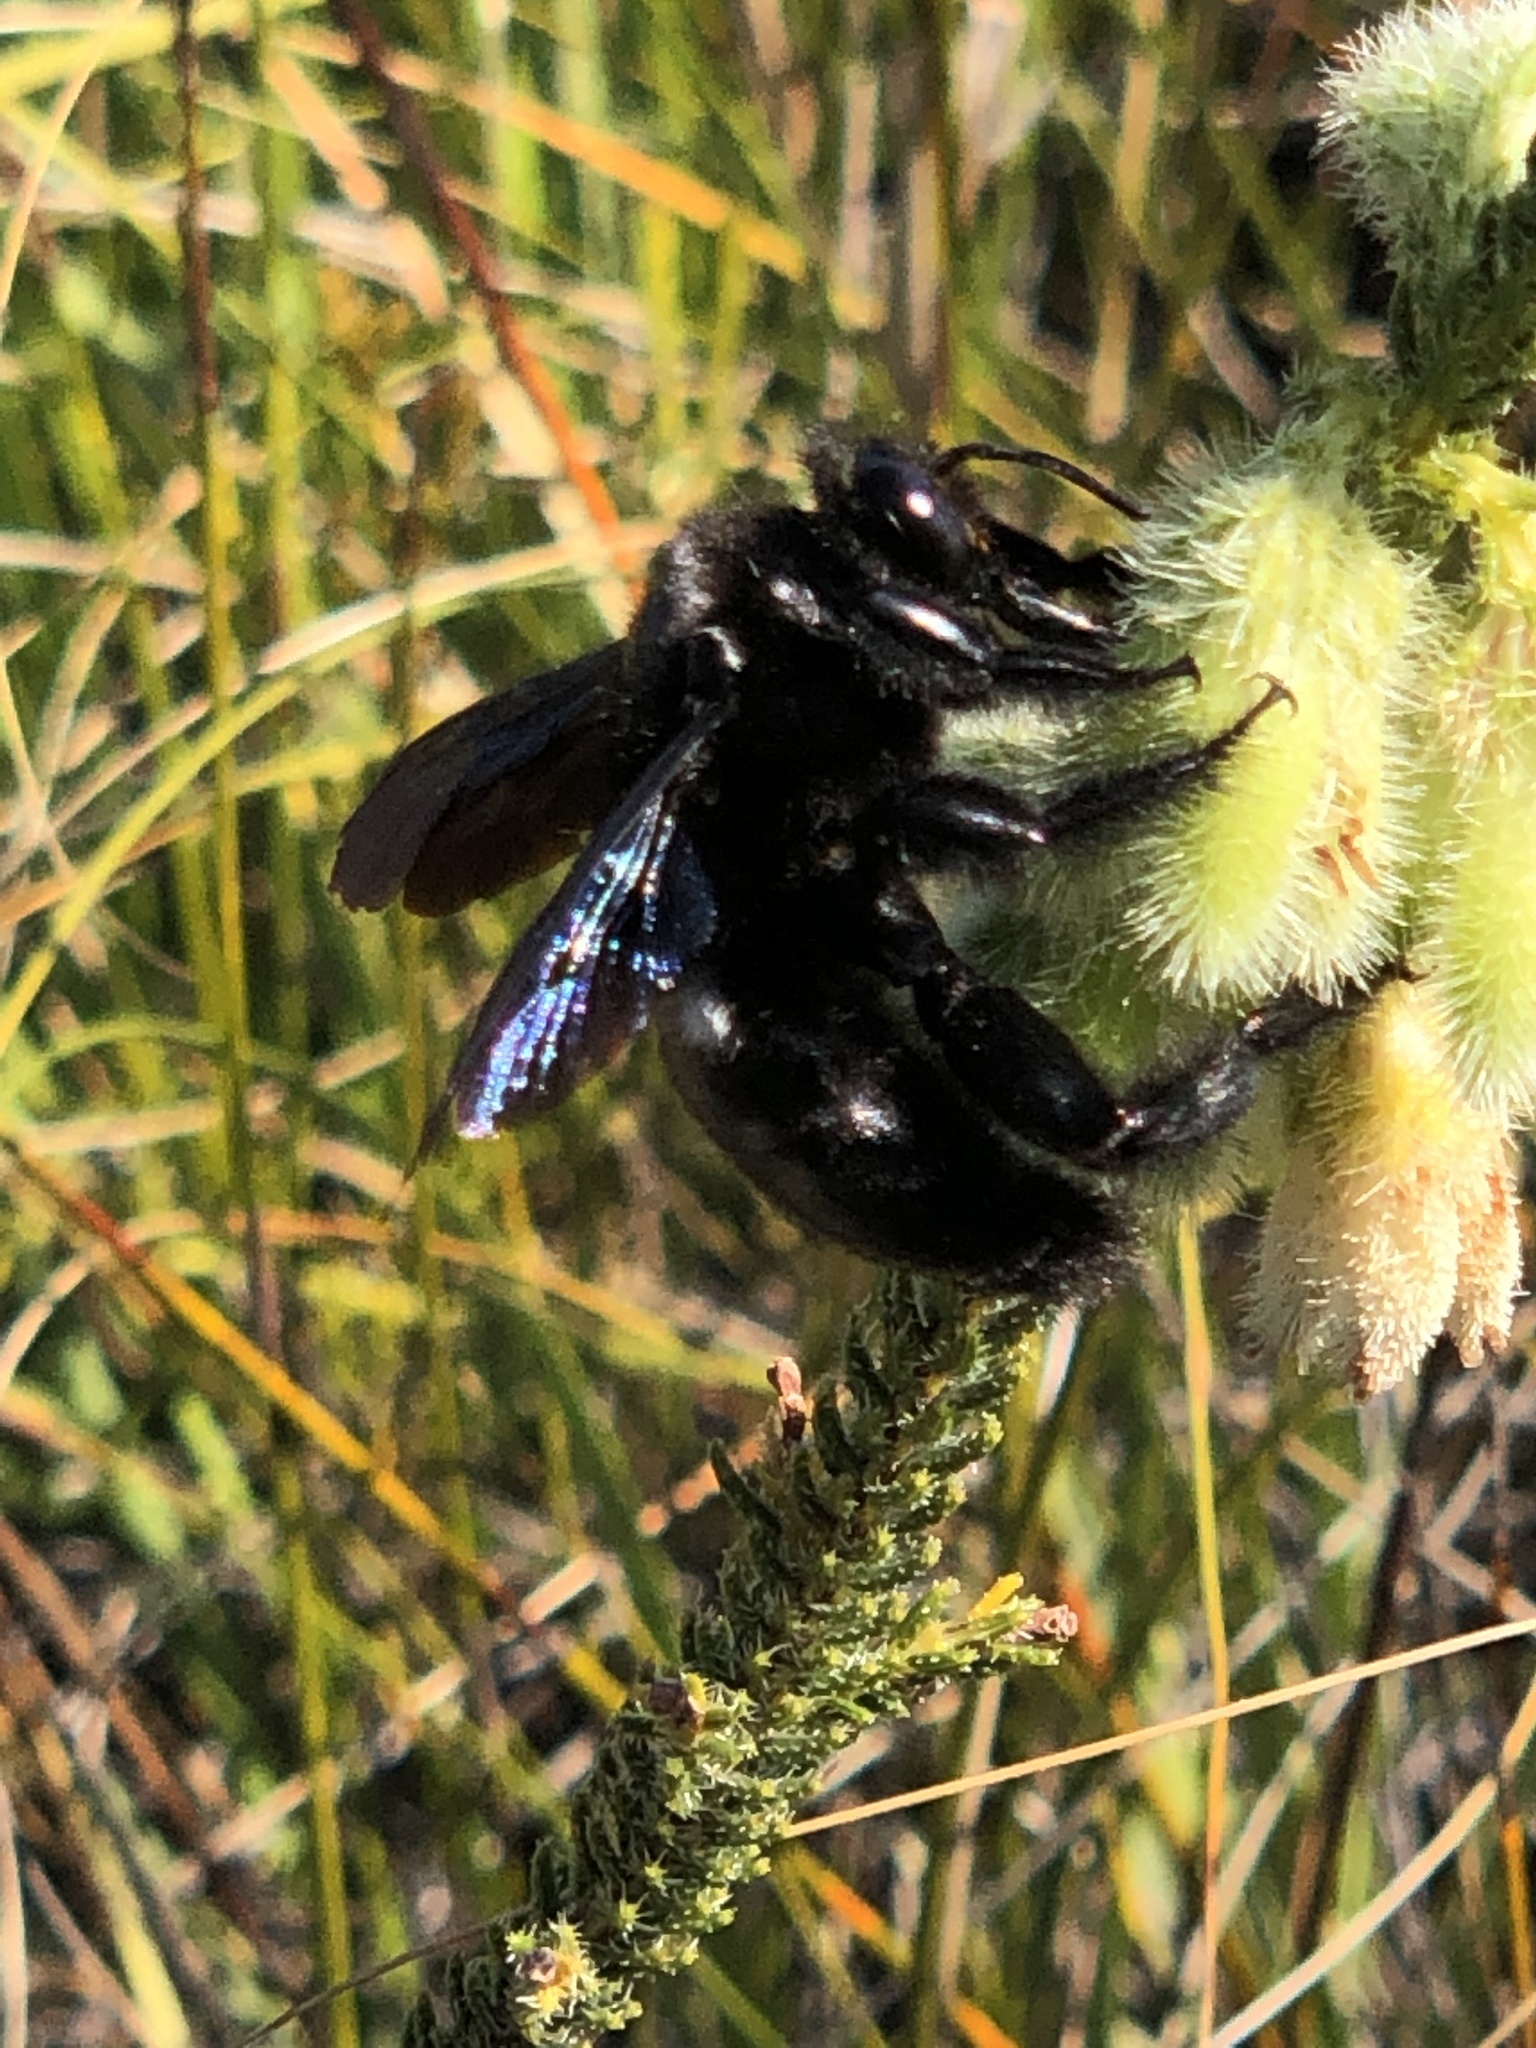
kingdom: Plantae
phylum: Tracheophyta
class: Magnoliopsida
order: Ericales
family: Ericaceae
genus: Erica
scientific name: Erica sparmannii
